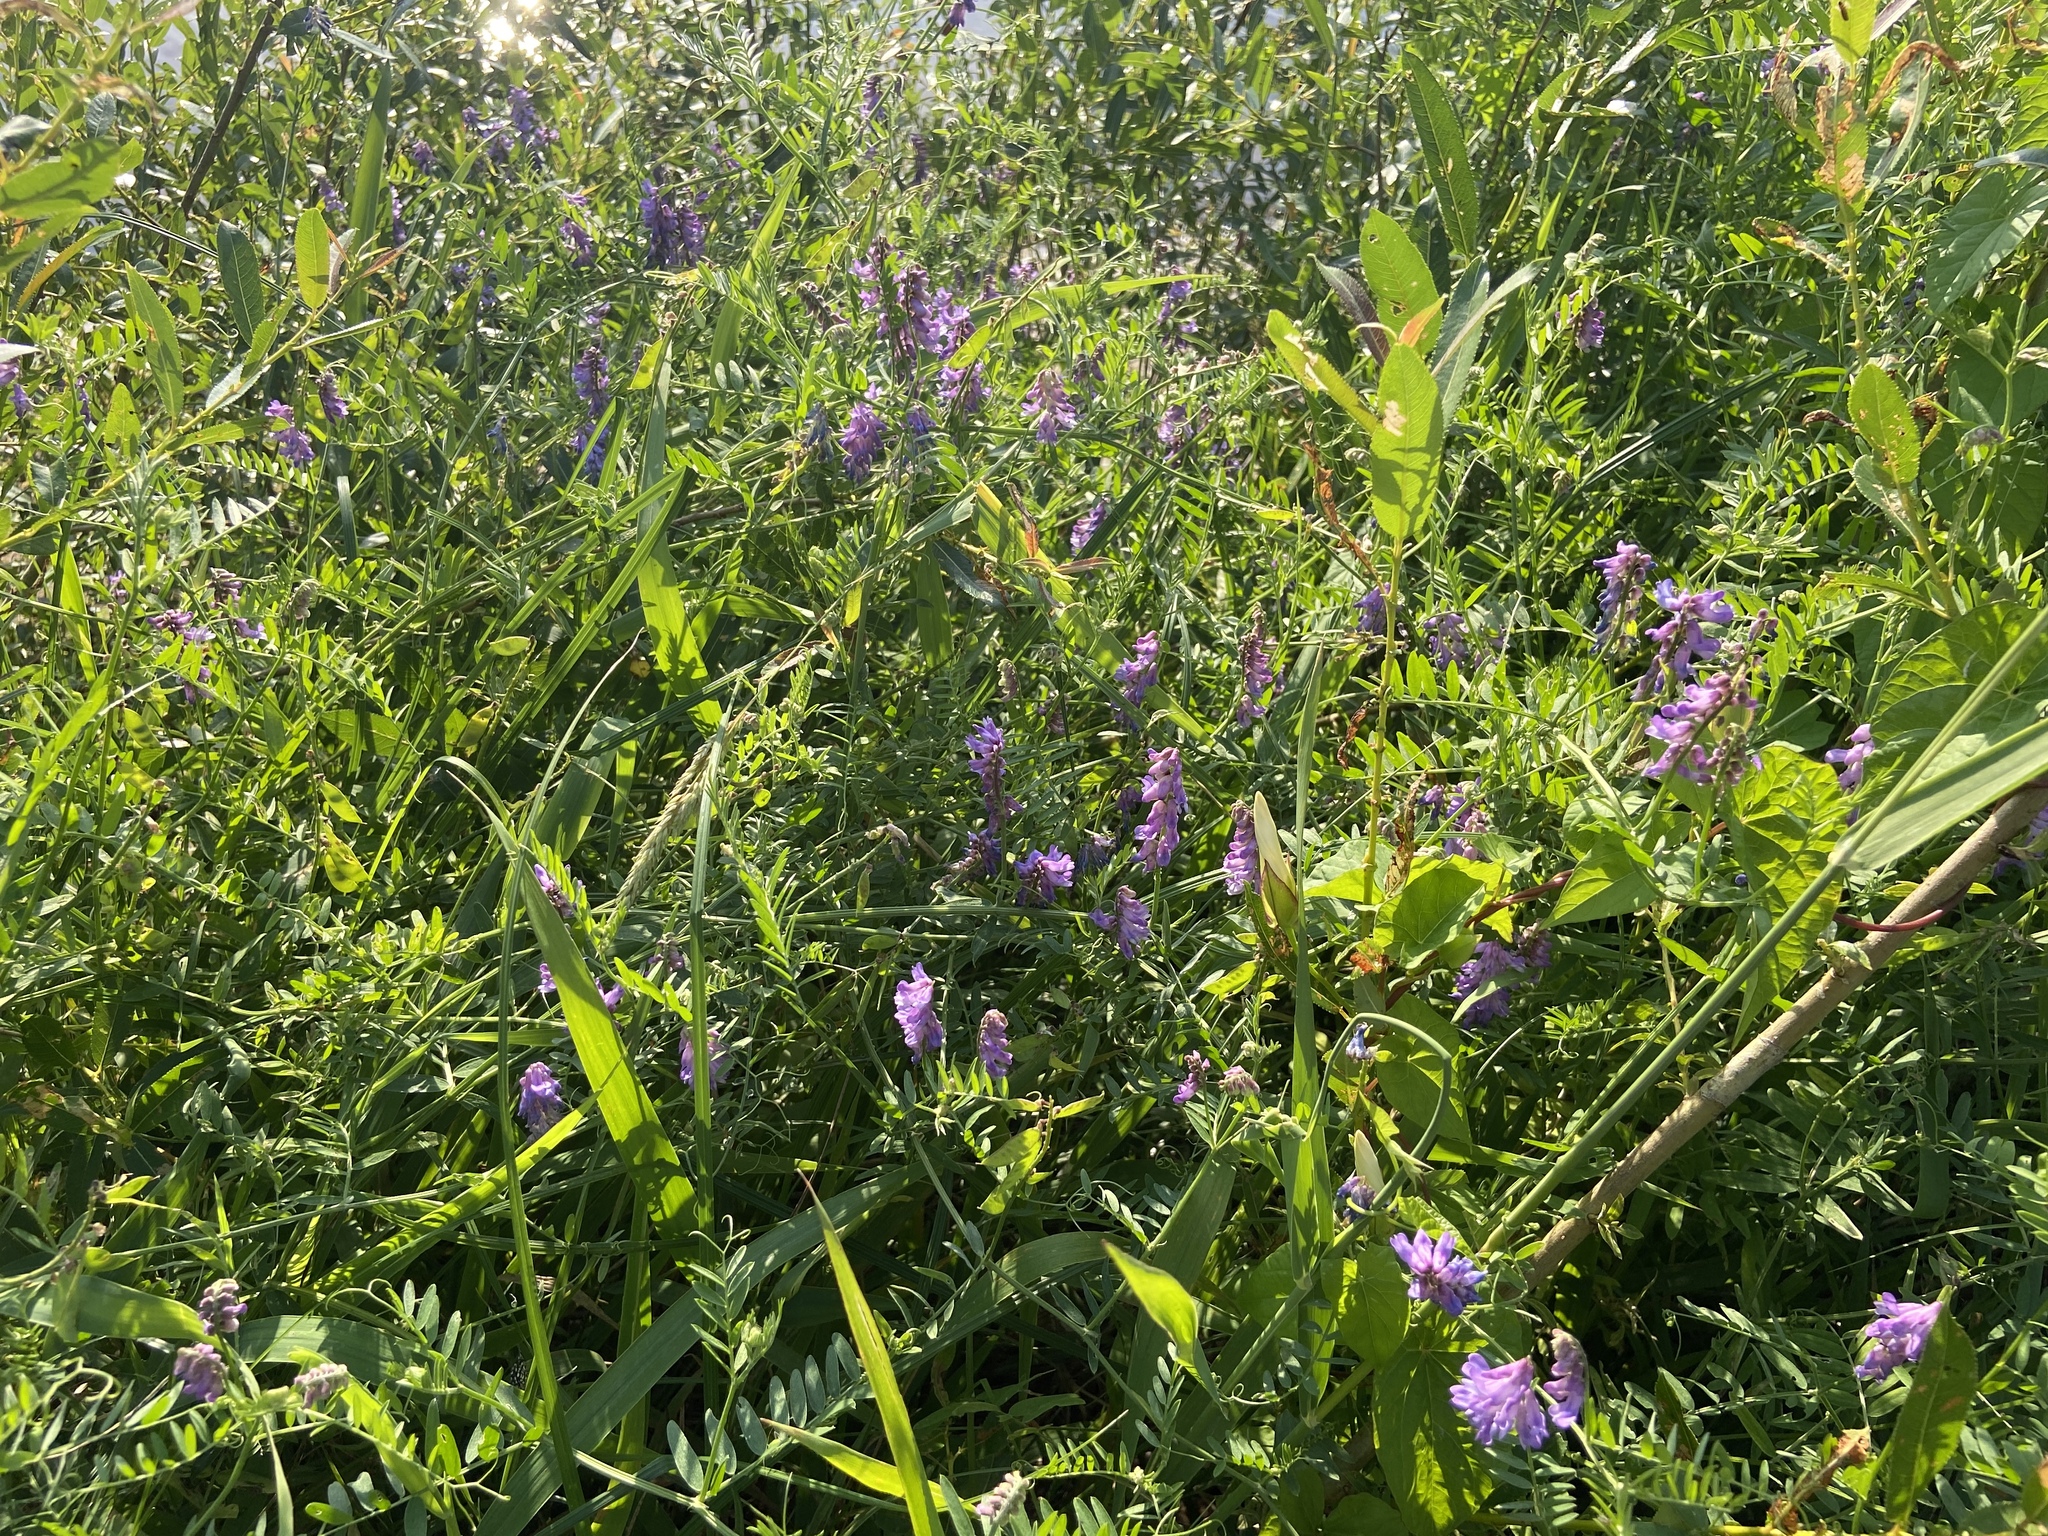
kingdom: Plantae
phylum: Tracheophyta
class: Magnoliopsida
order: Fabales
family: Fabaceae
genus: Vicia
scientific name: Vicia cracca
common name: Bird vetch
